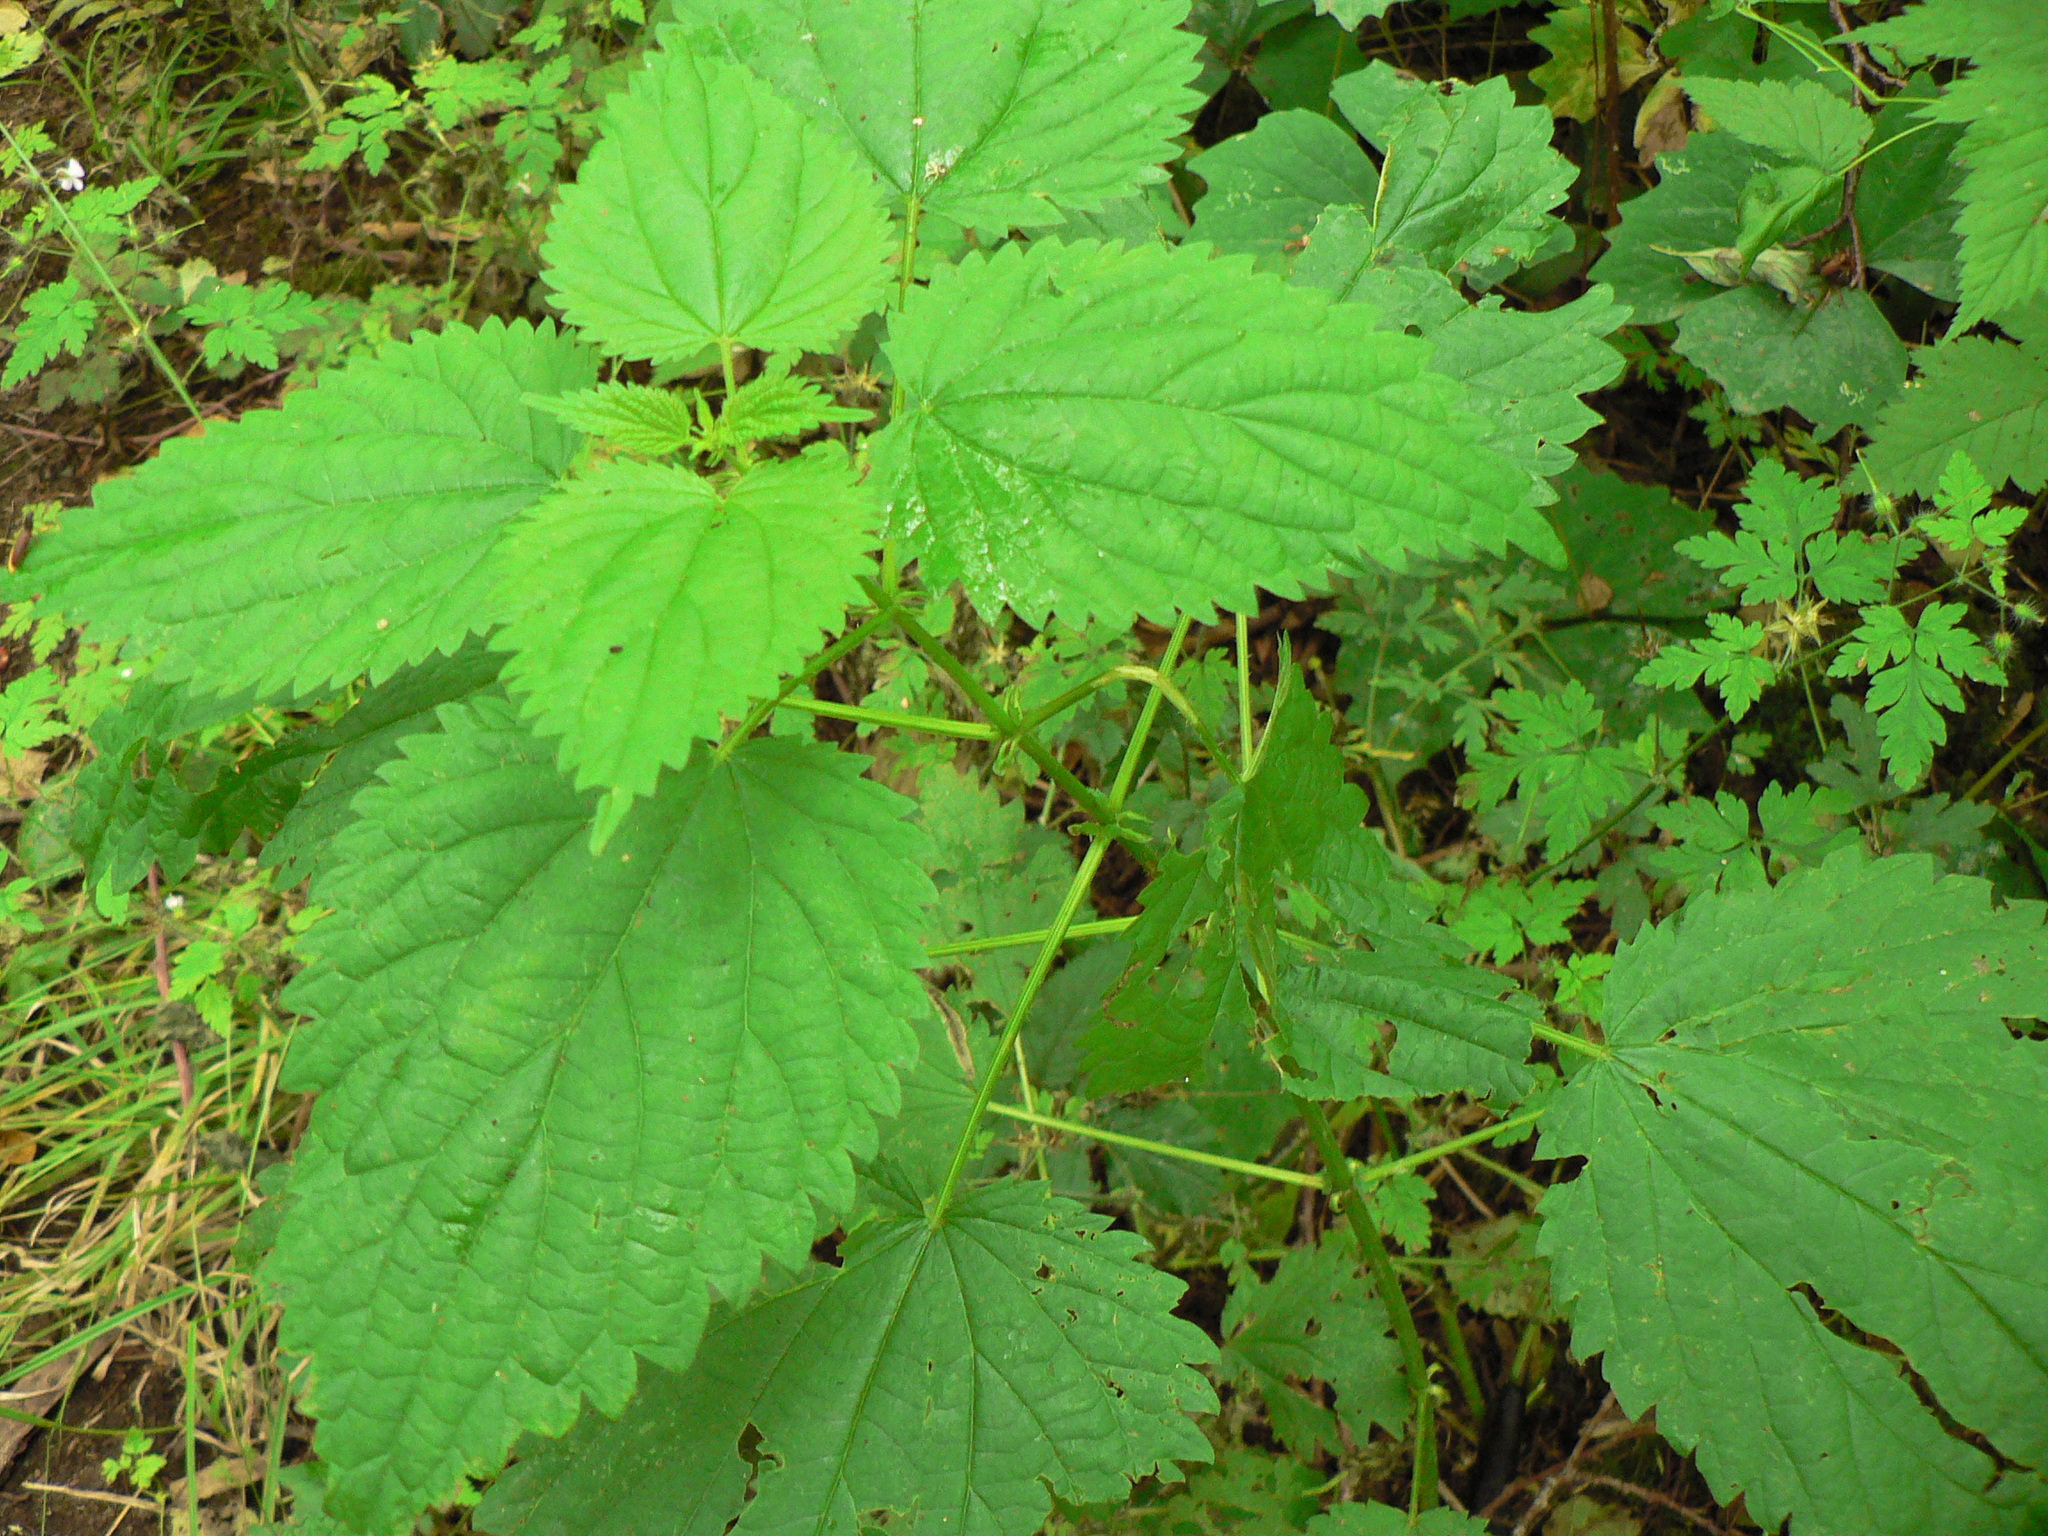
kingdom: Plantae
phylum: Tracheophyta
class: Magnoliopsida
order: Rosales
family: Urticaceae
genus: Urtica
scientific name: Urtica dioica
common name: Common nettle
